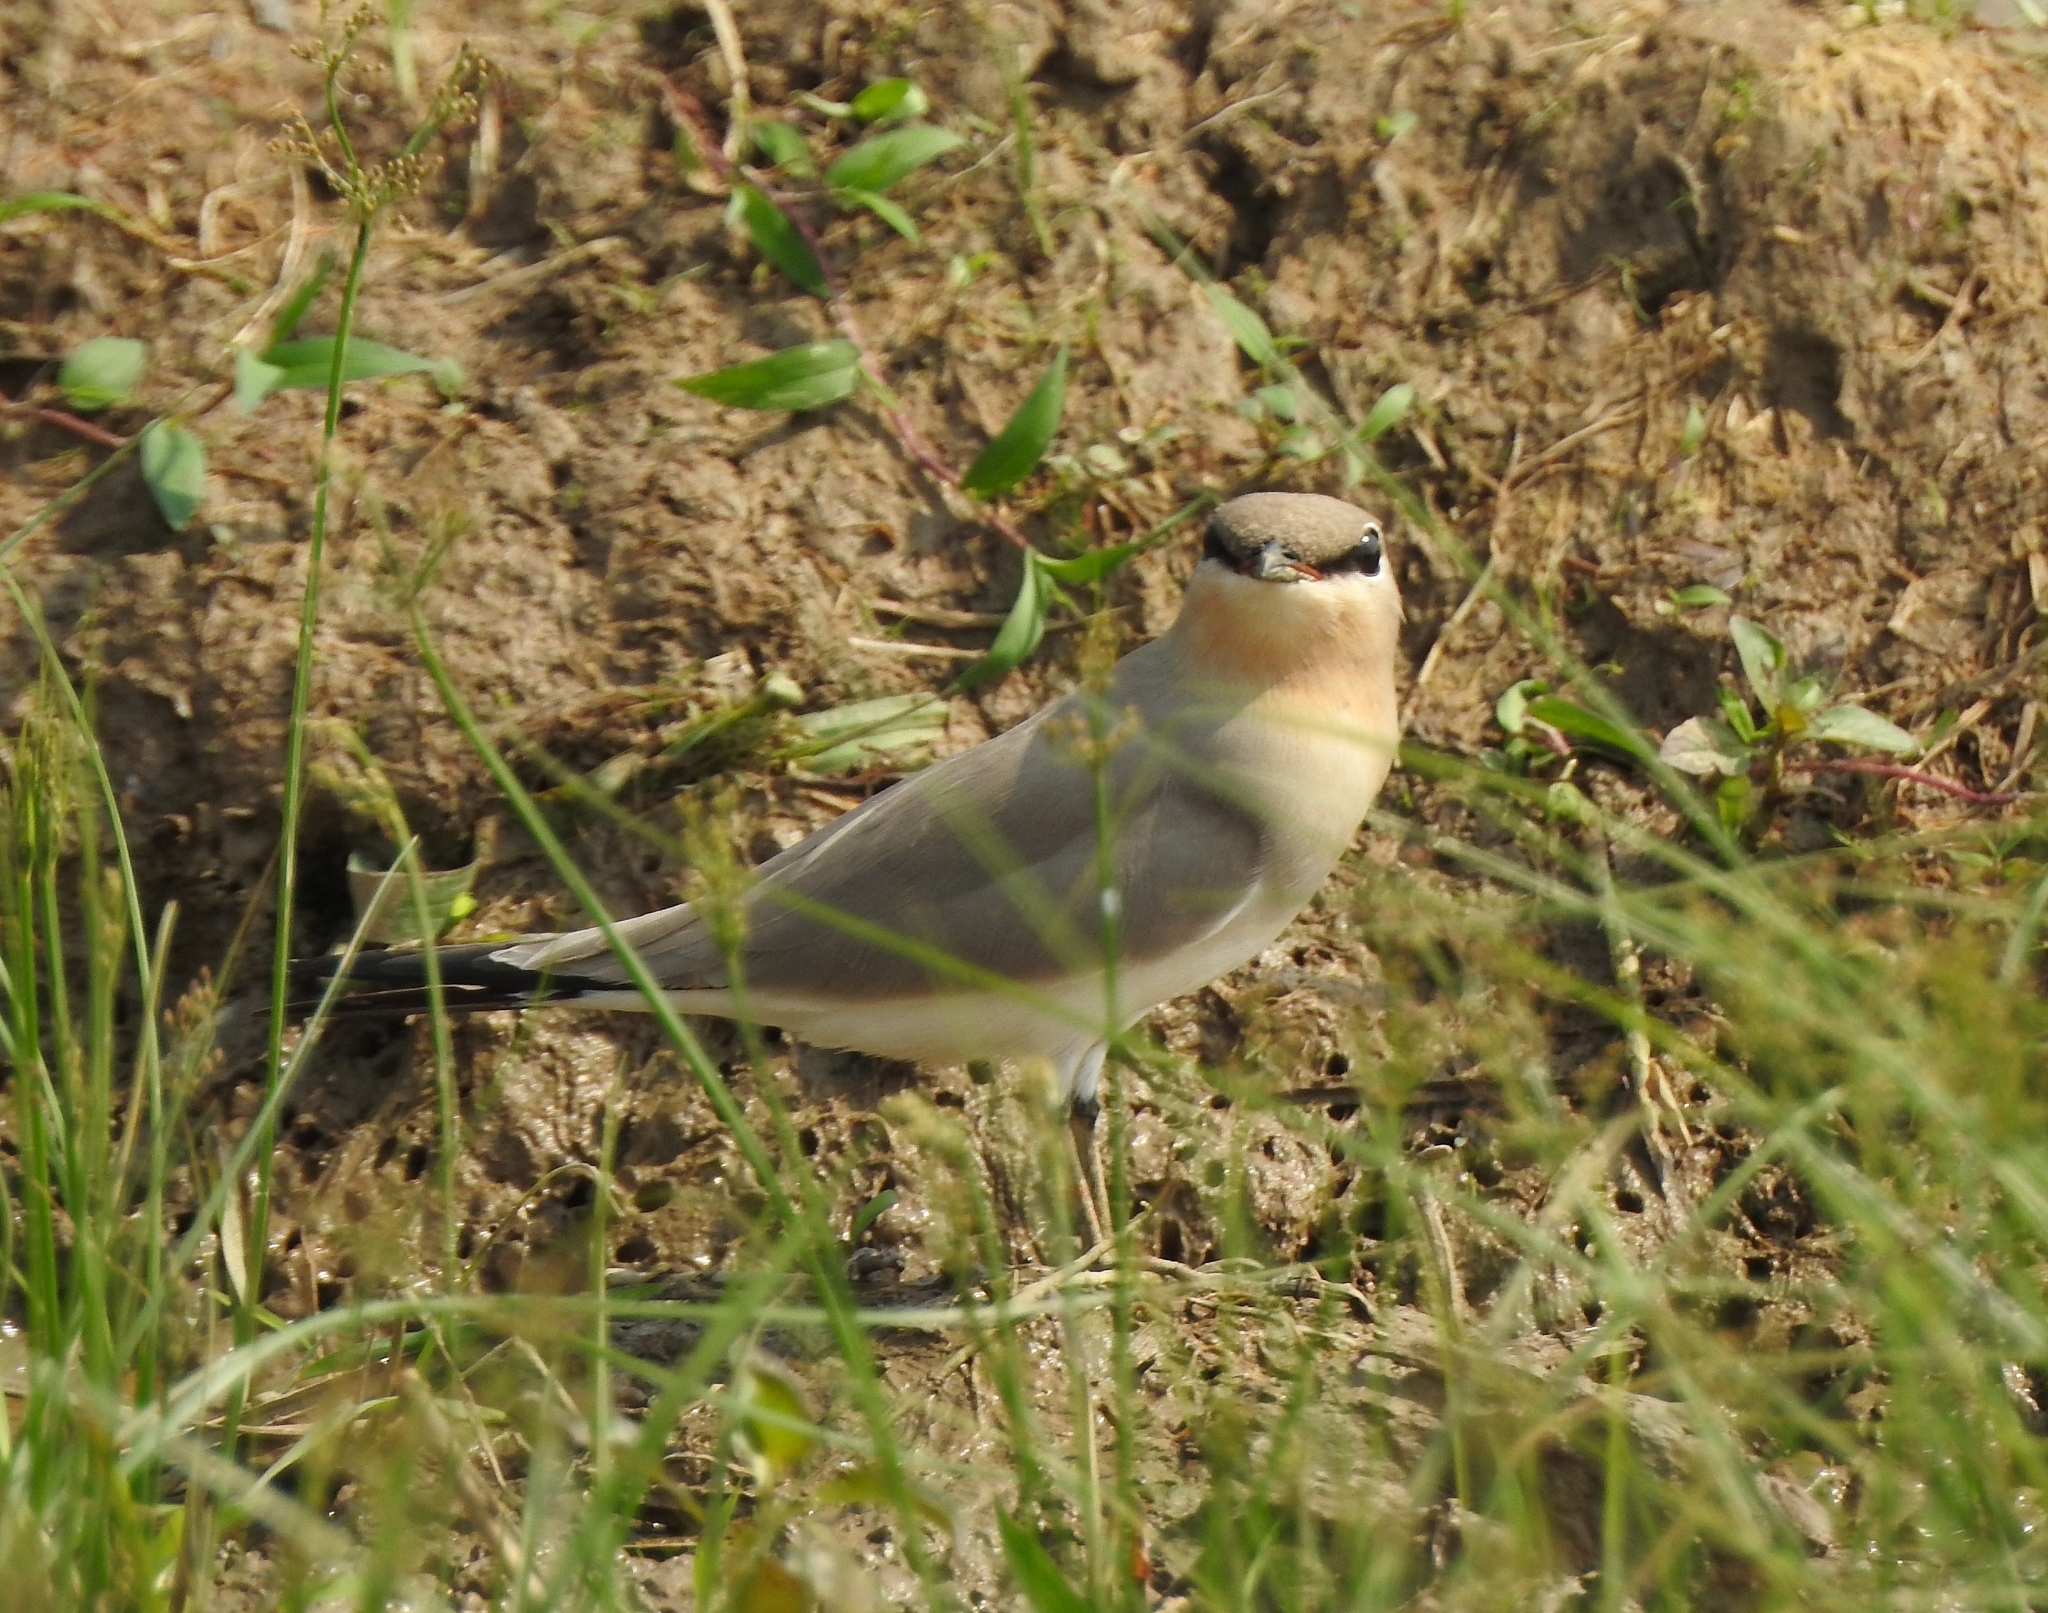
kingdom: Animalia
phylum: Chordata
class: Aves
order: Charadriiformes
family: Glareolidae
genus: Glareola
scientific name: Glareola lactea
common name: Small pratincole
